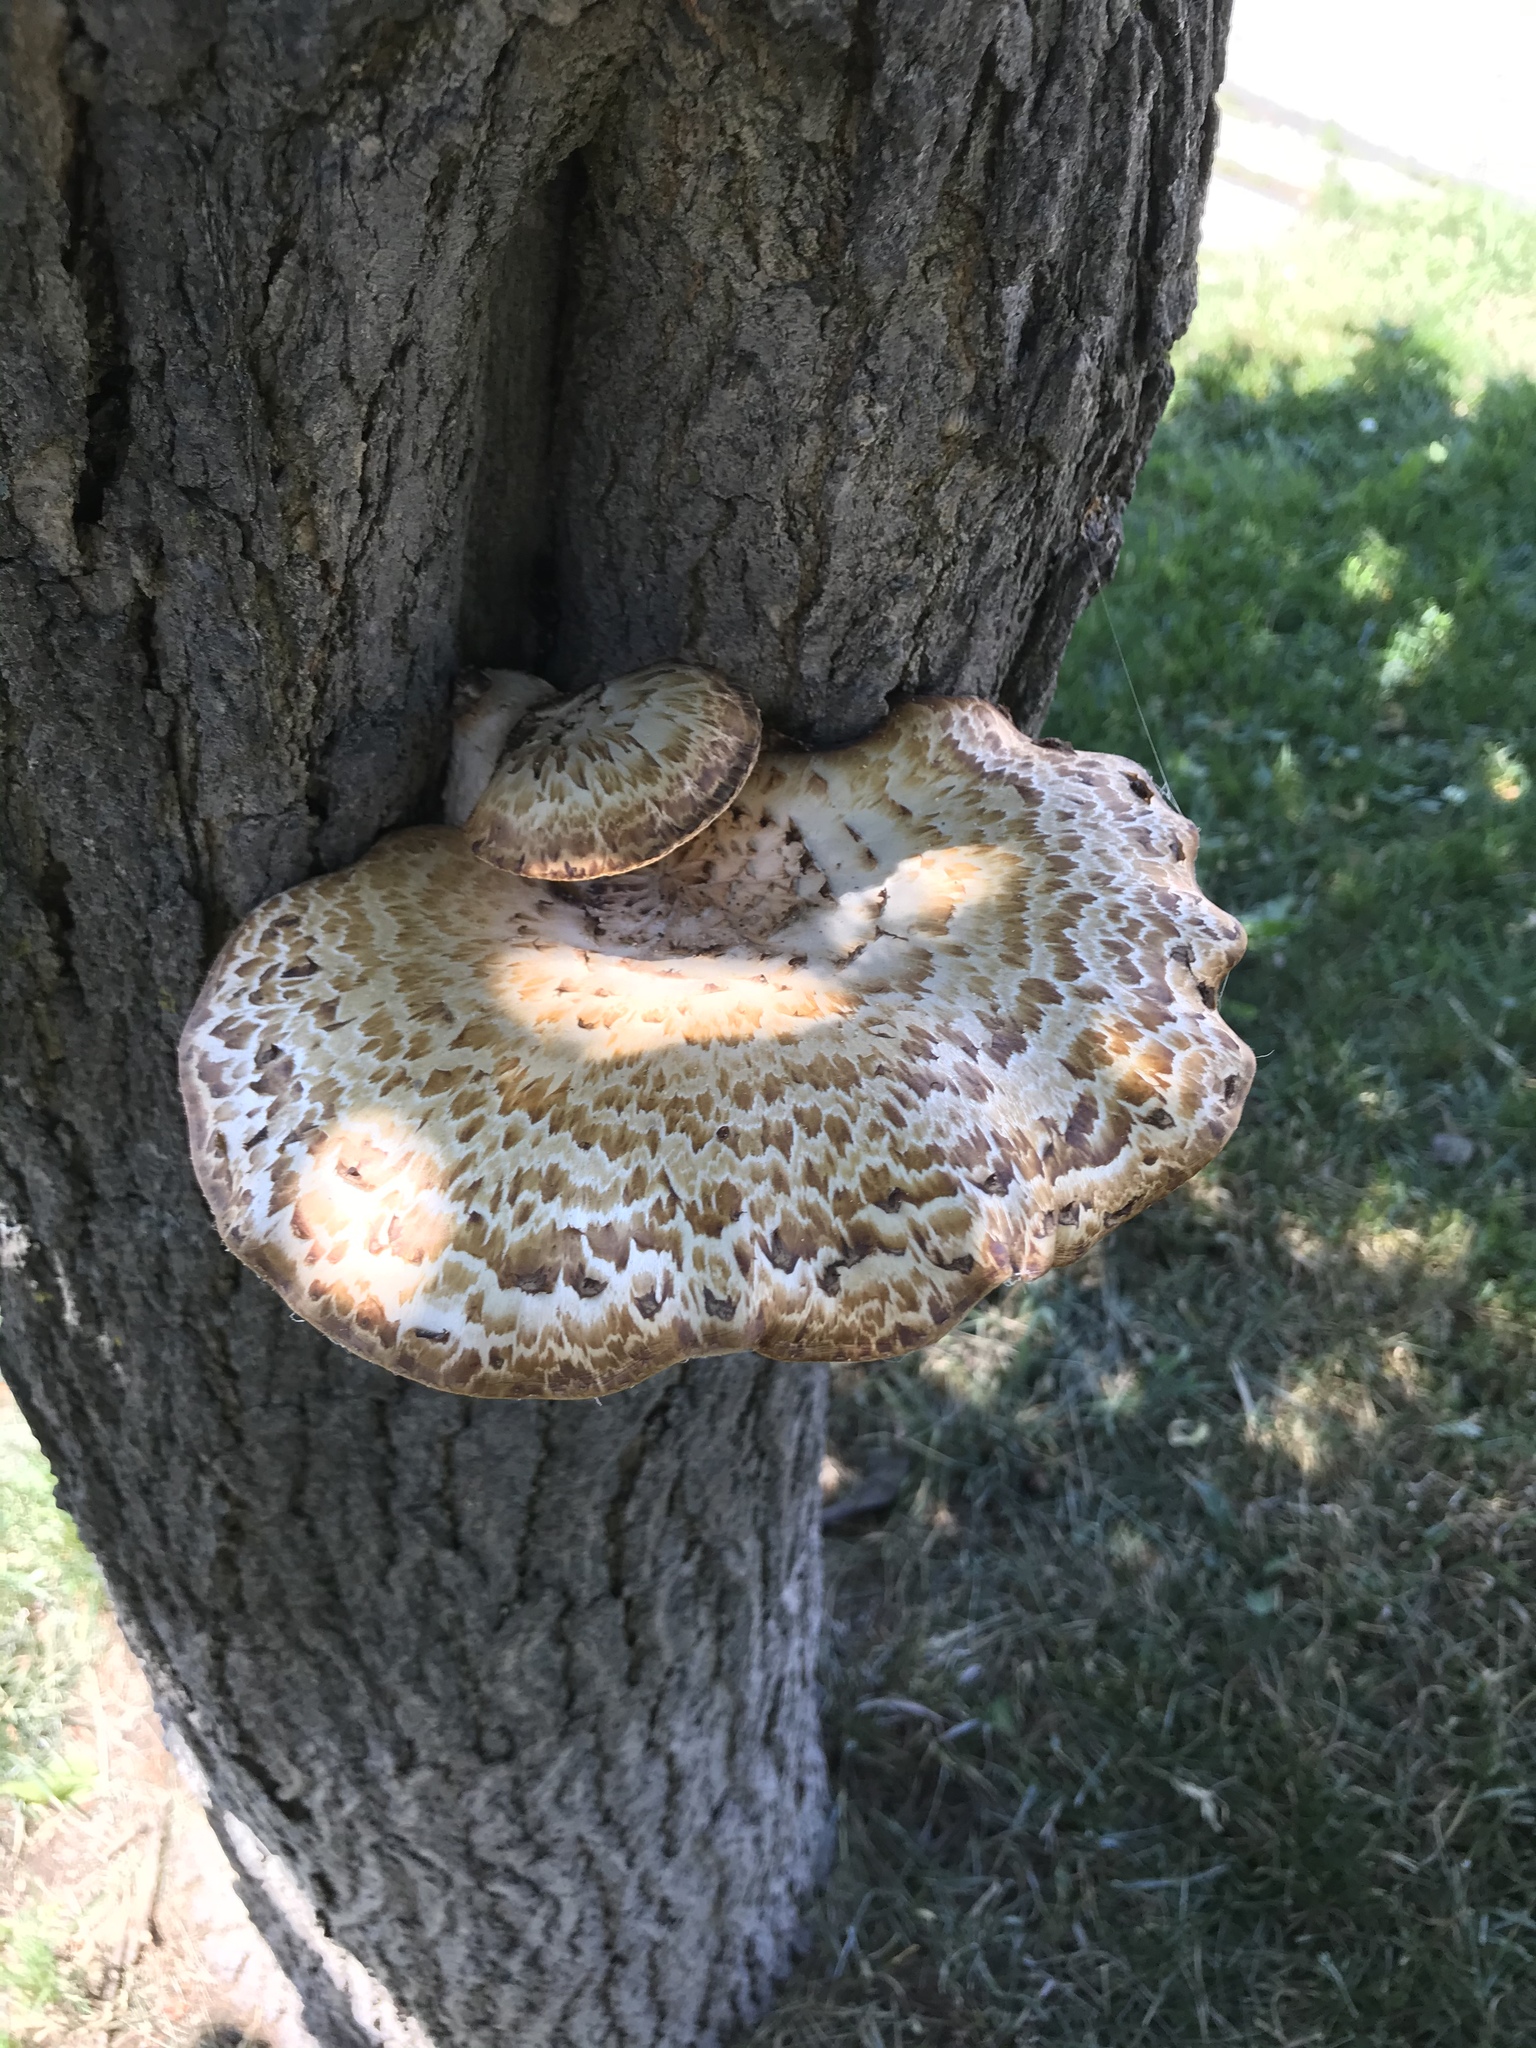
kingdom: Fungi
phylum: Basidiomycota
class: Agaricomycetes
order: Polyporales
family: Polyporaceae
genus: Cerioporus
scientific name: Cerioporus squamosus
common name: Dryad's saddle
